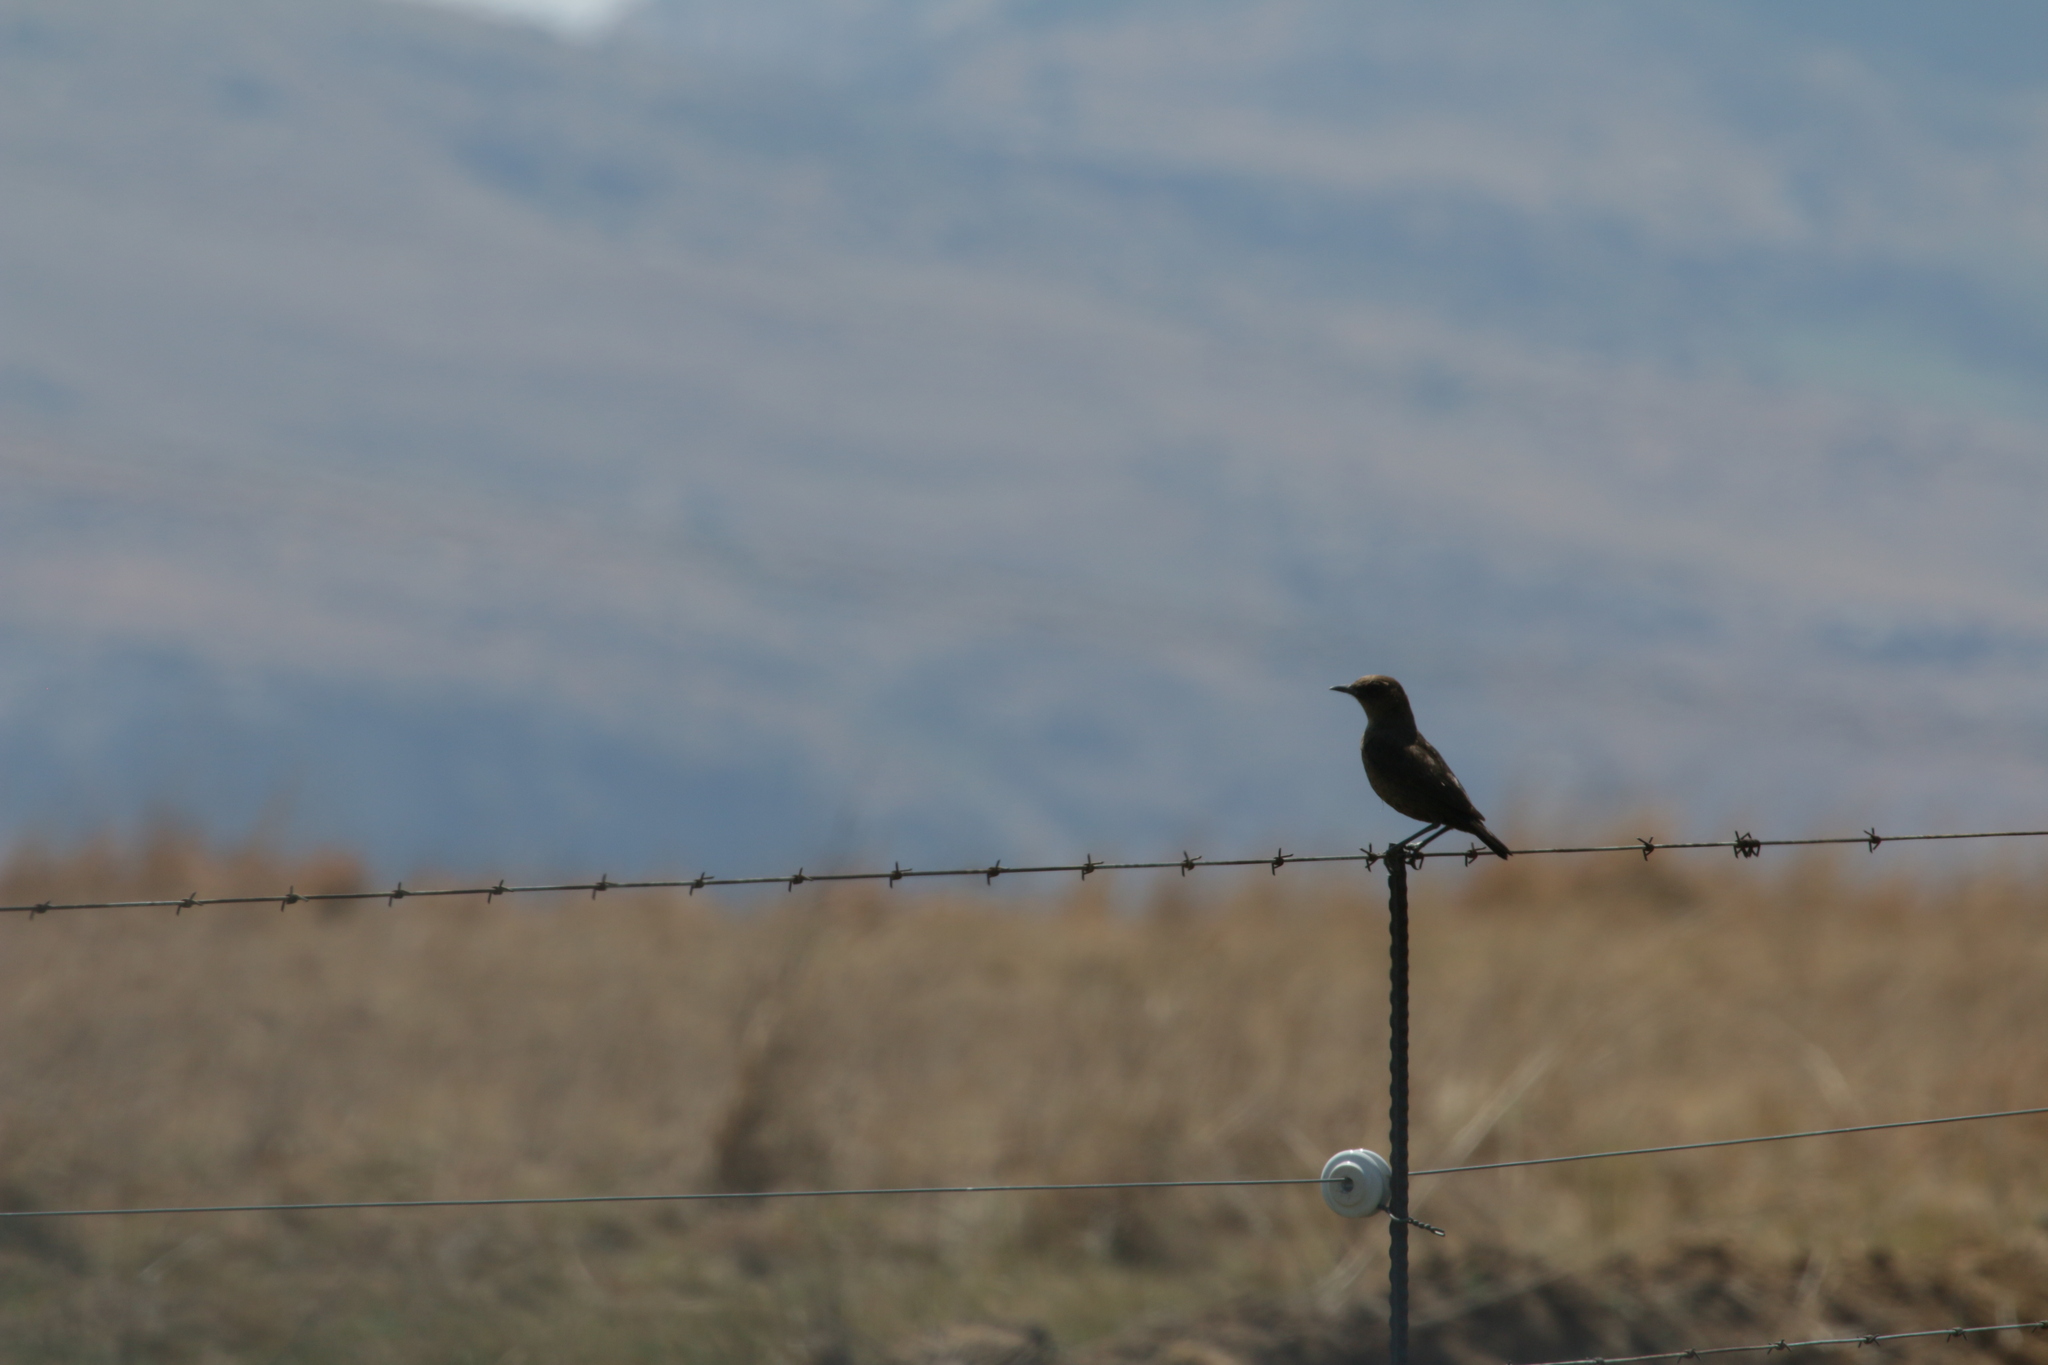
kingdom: Animalia
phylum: Chordata
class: Aves
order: Passeriformes
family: Muscicapidae
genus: Myrmecocichla
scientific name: Myrmecocichla formicivora
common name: Ant-eating chat
